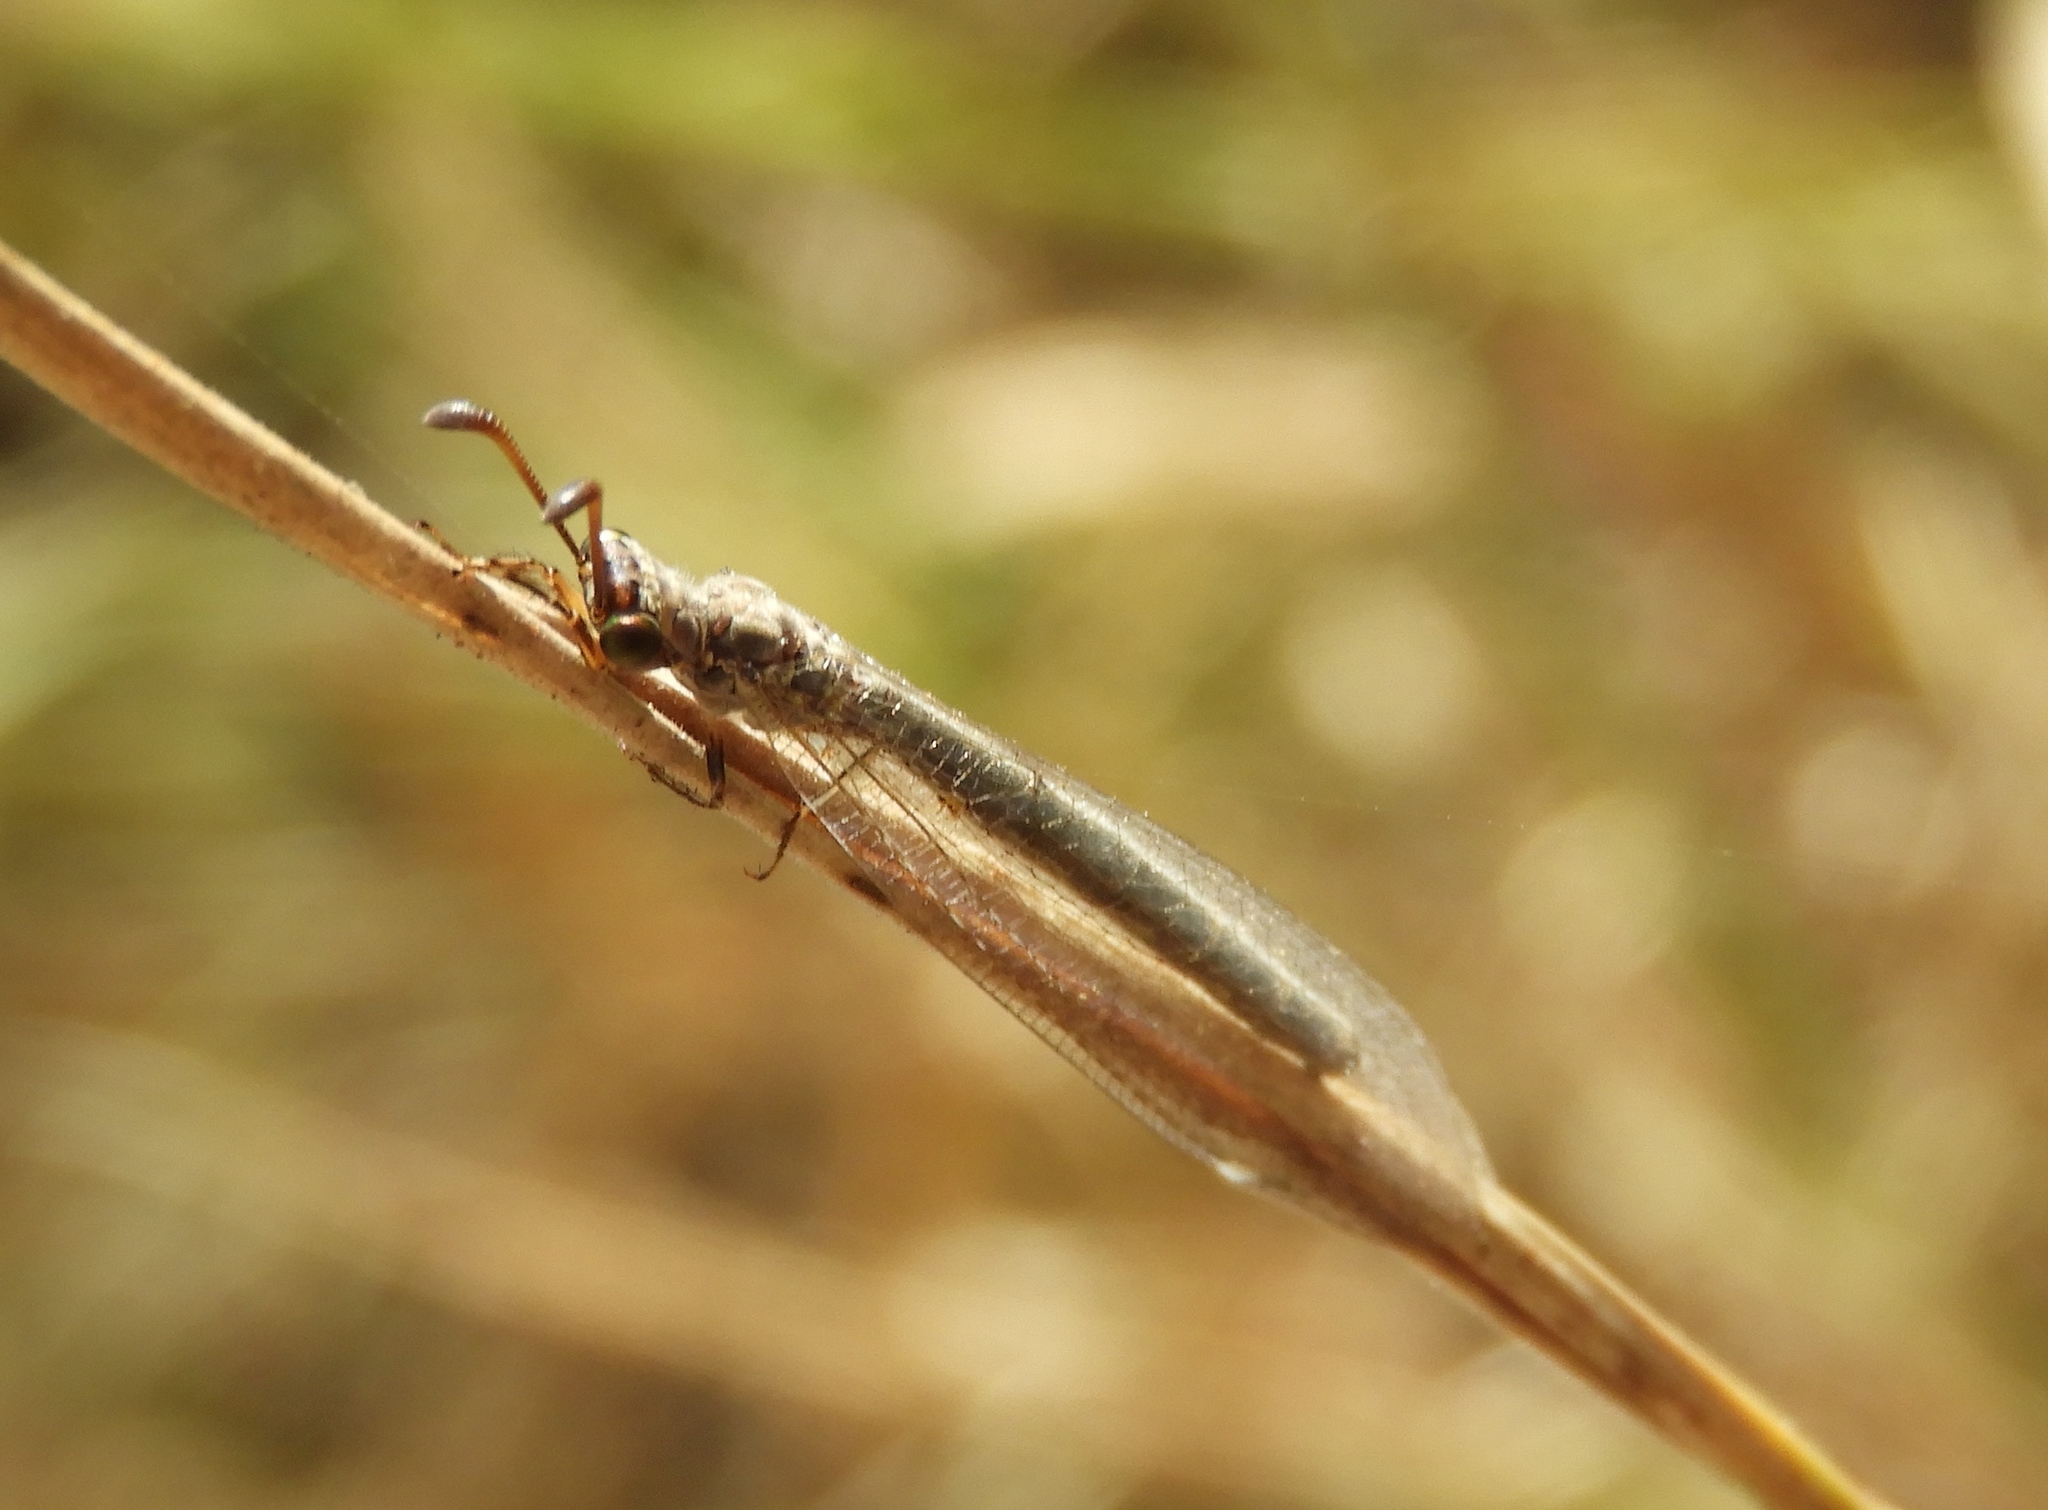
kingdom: Animalia
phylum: Arthropoda
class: Insecta
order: Neuroptera
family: Myrmeleontidae
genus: Myrmeleon
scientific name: Myrmeleon
